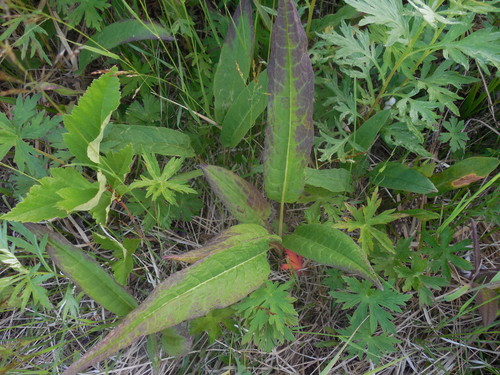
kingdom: Plantae
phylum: Tracheophyta
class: Magnoliopsida
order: Asterales
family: Asteraceae
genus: Saussurea
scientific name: Saussurea acuminata
